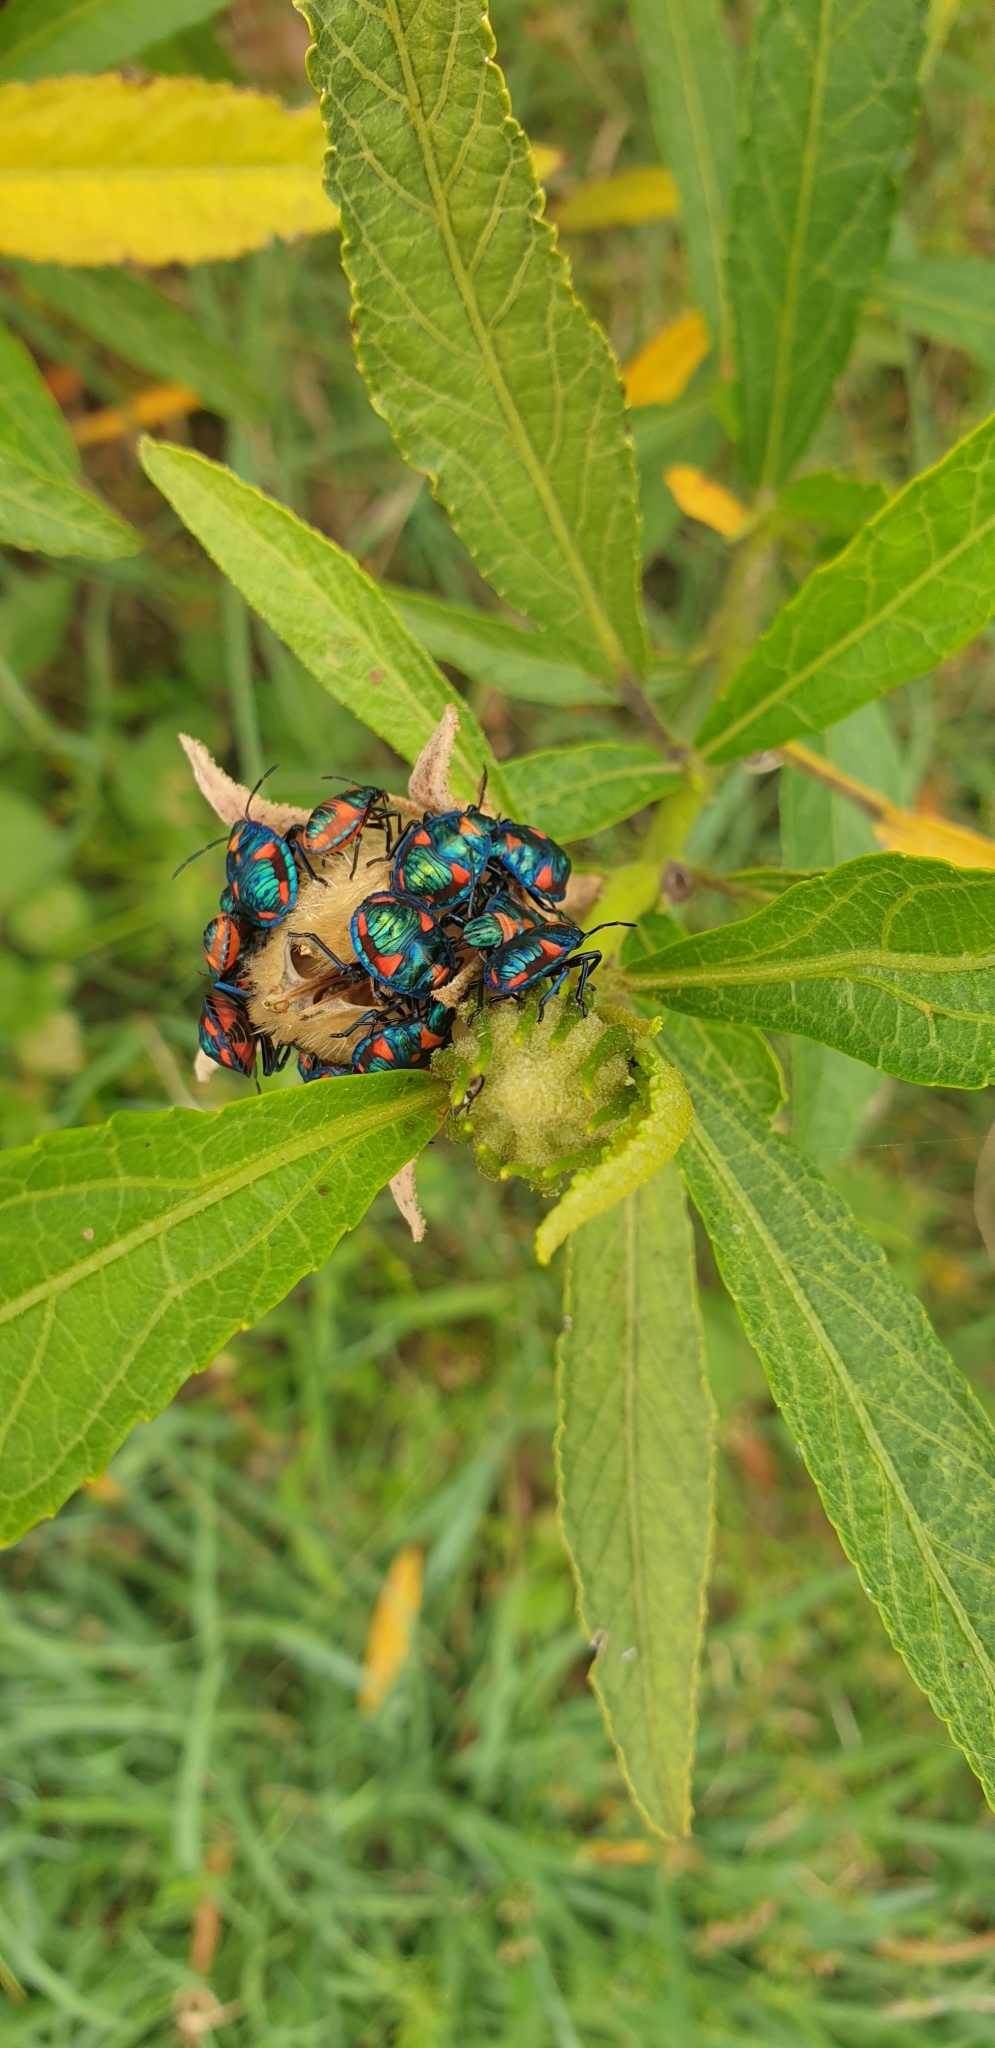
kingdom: Animalia
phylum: Arthropoda
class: Insecta
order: Hemiptera
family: Scutelleridae
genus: Tectocoris
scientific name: Tectocoris diophthalmus
